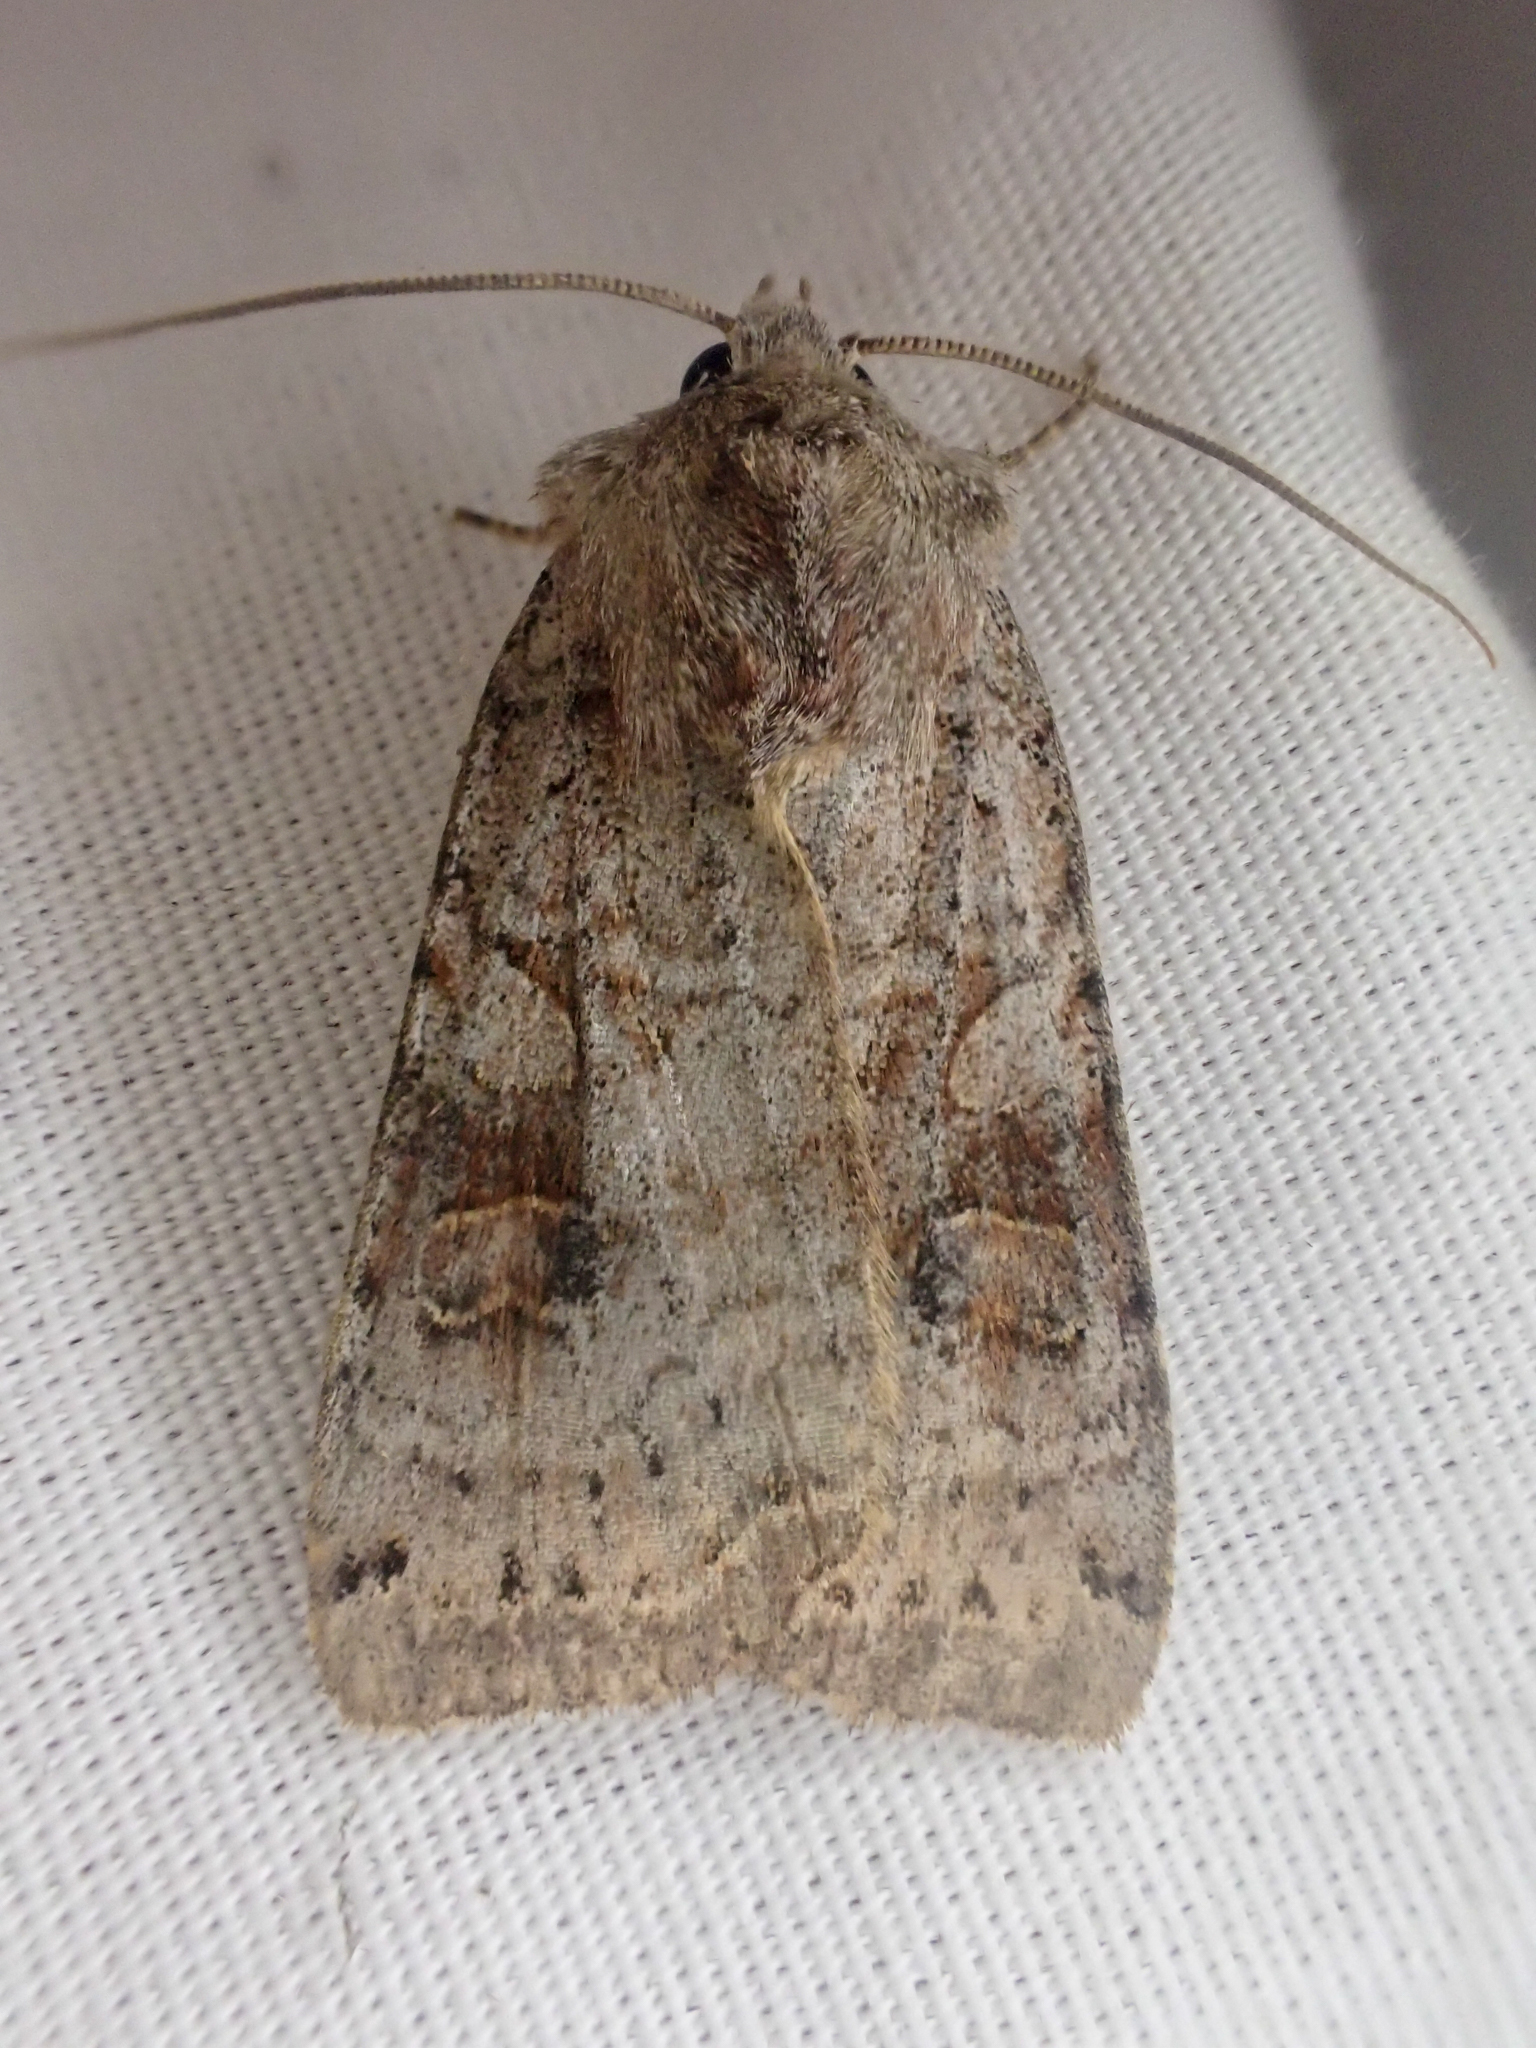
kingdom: Animalia
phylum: Arthropoda
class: Insecta
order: Lepidoptera
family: Noctuidae
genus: Xestia
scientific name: Xestia smithii
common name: Smith's dart
